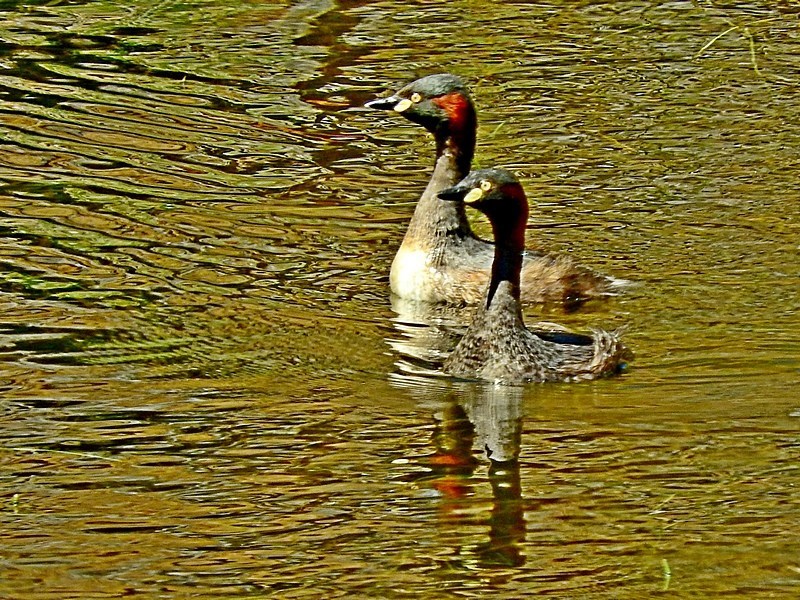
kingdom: Animalia
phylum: Chordata
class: Aves
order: Podicipediformes
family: Podicipedidae
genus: Tachybaptus
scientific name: Tachybaptus novaehollandiae
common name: Australasian grebe
